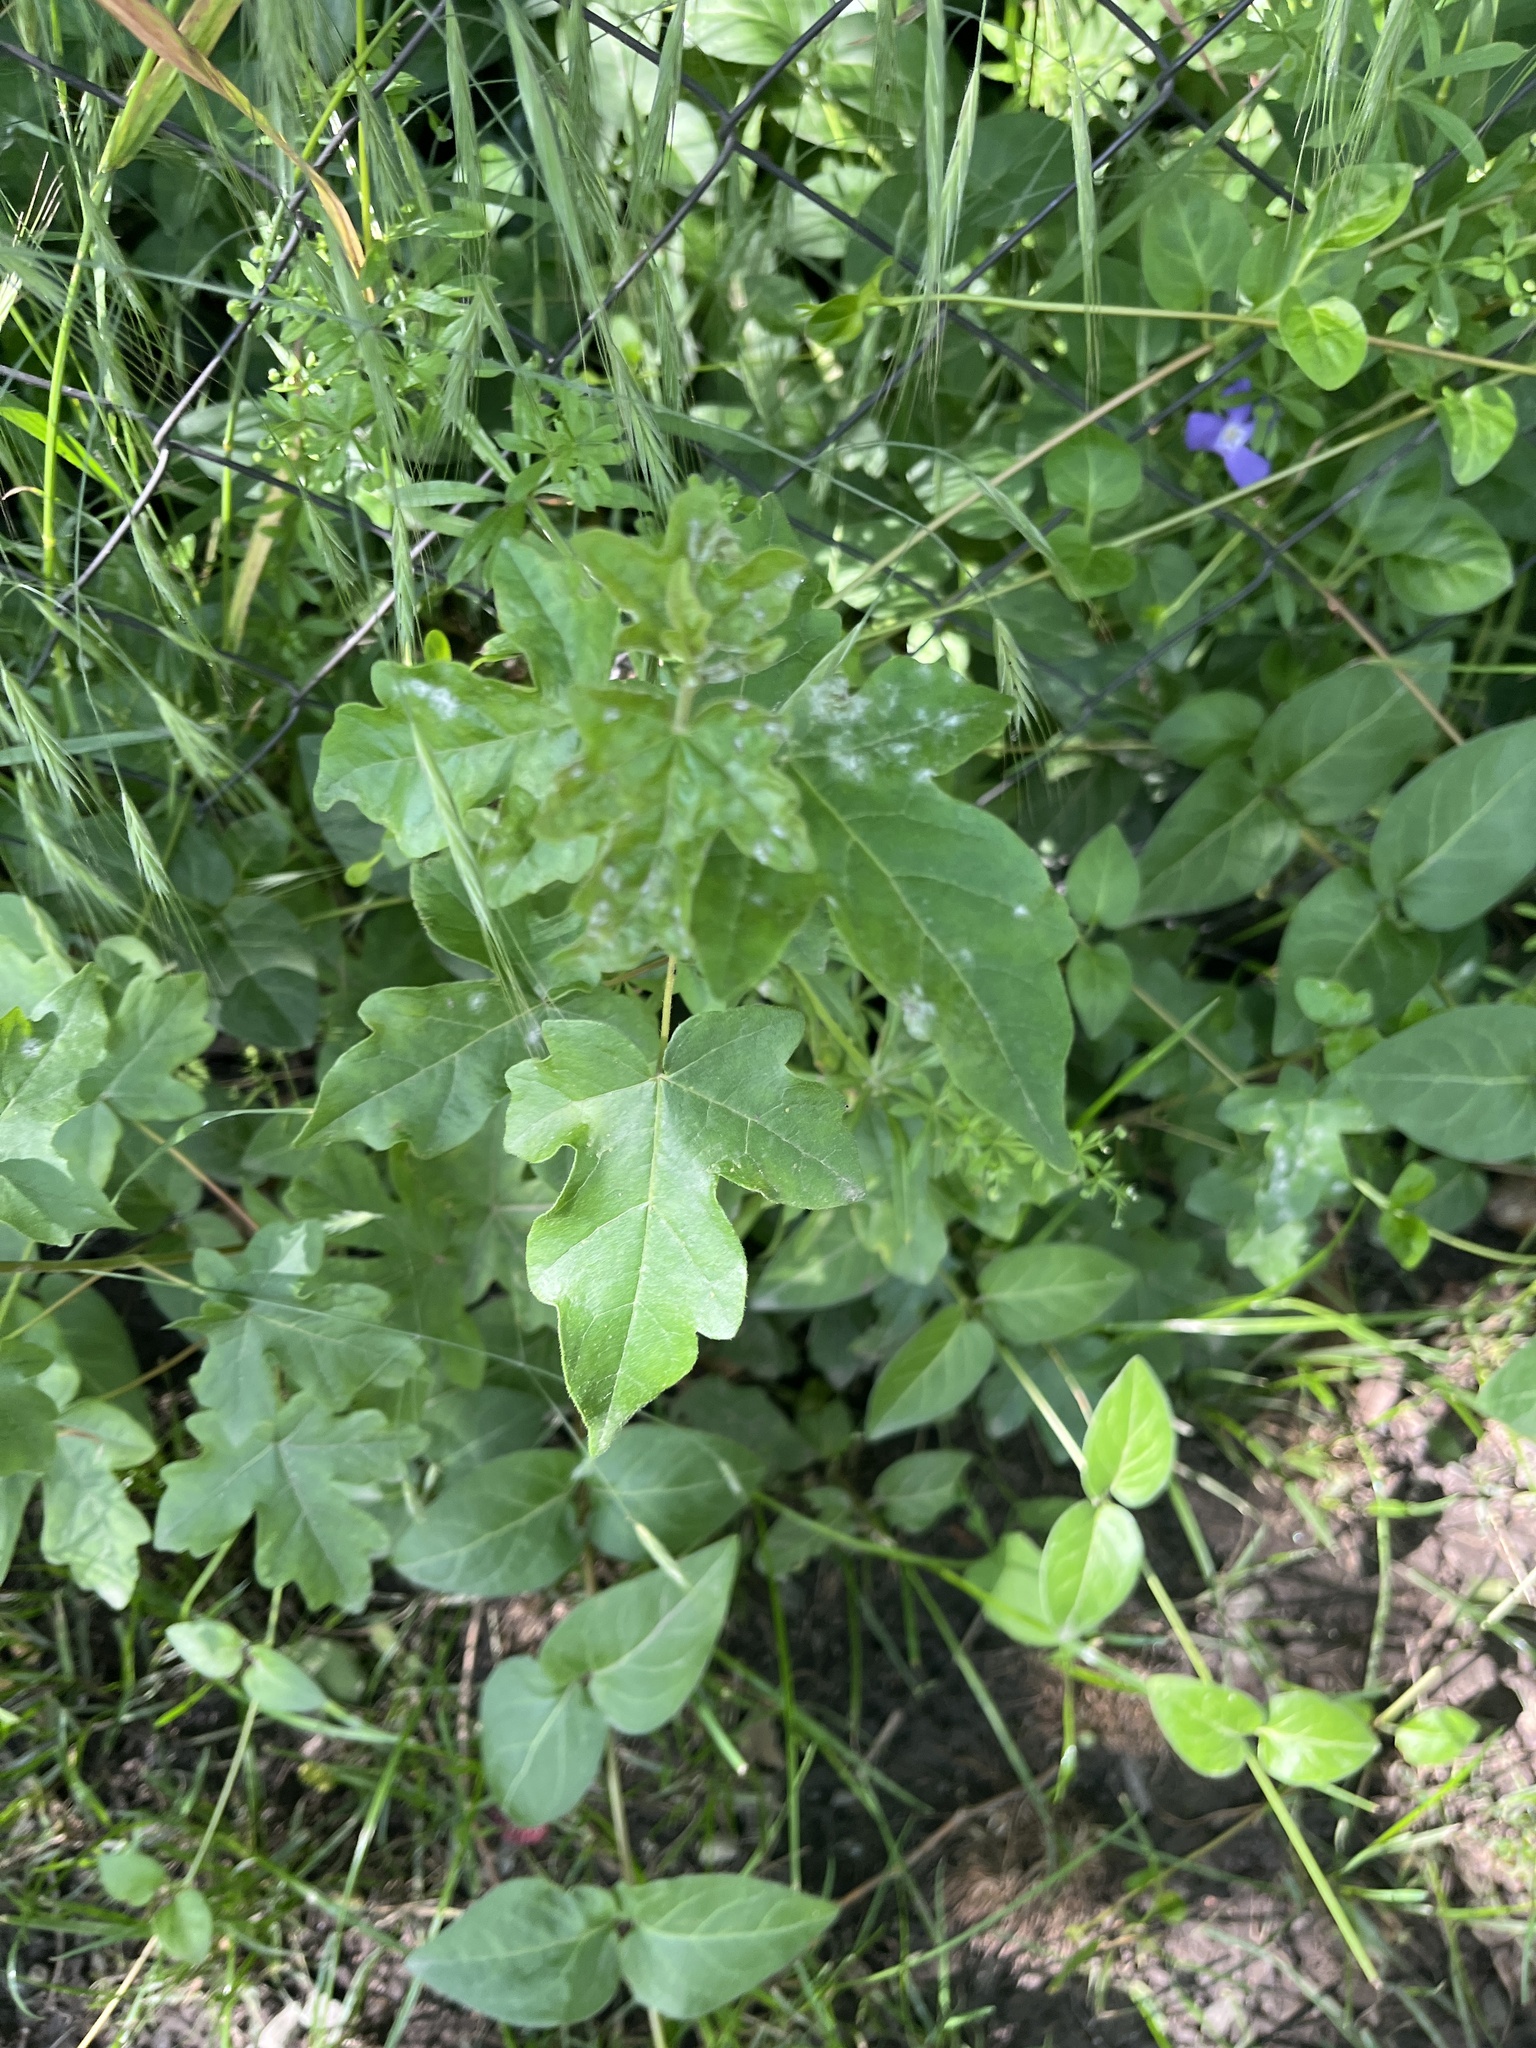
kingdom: Plantae
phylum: Tracheophyta
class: Magnoliopsida
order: Sapindales
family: Sapindaceae
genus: Acer
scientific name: Acer campestre
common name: Field maple
